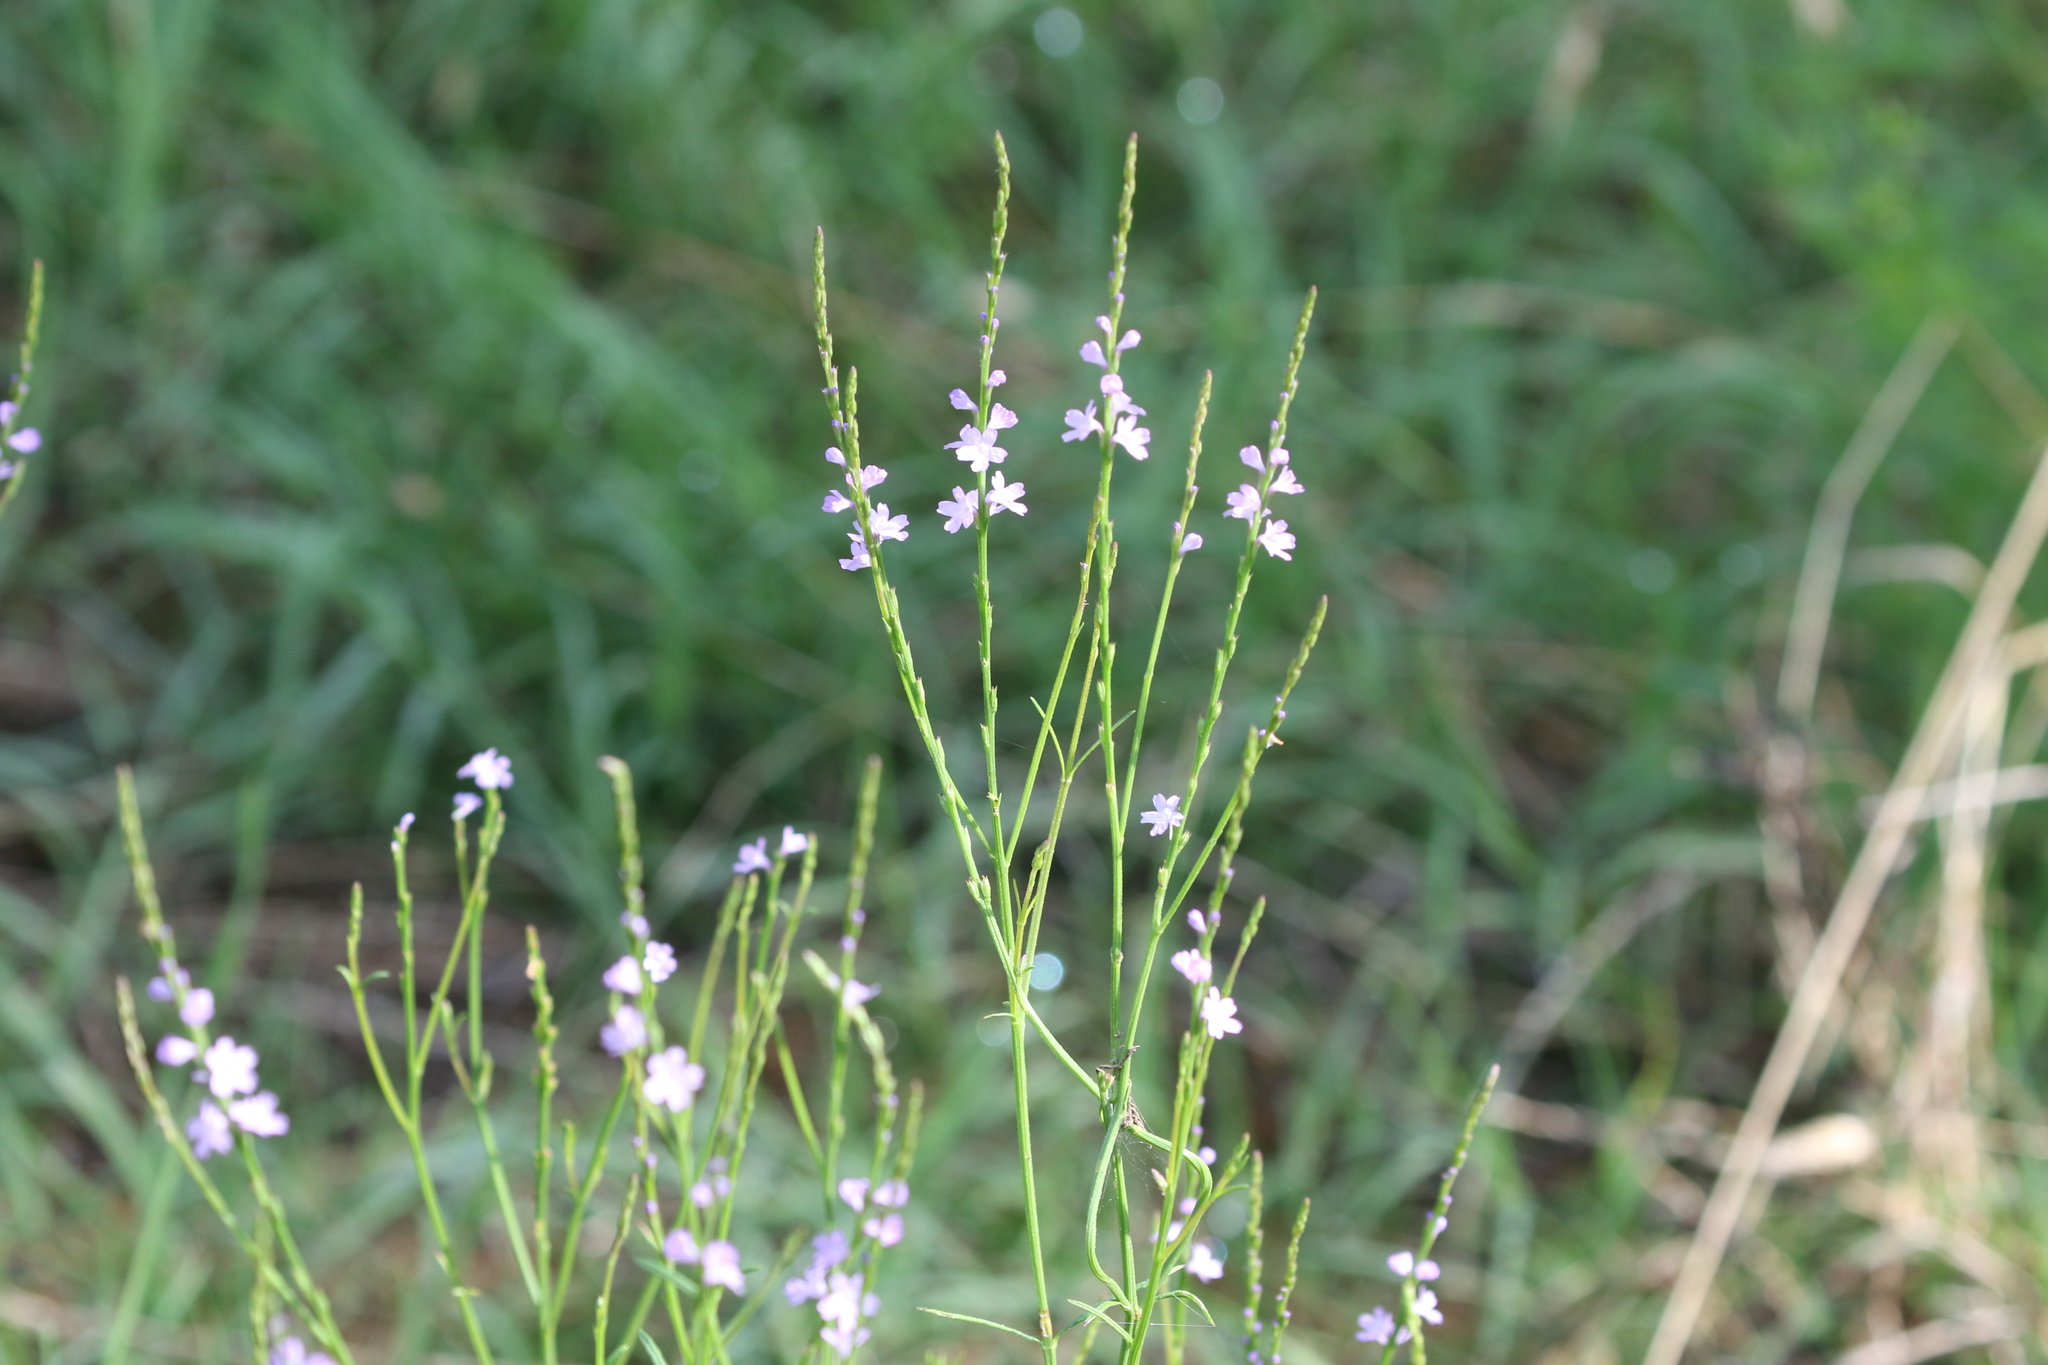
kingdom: Plantae
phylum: Tracheophyta
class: Magnoliopsida
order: Lamiales
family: Verbenaceae
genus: Verbena
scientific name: Verbena halei
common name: Texas vervain
